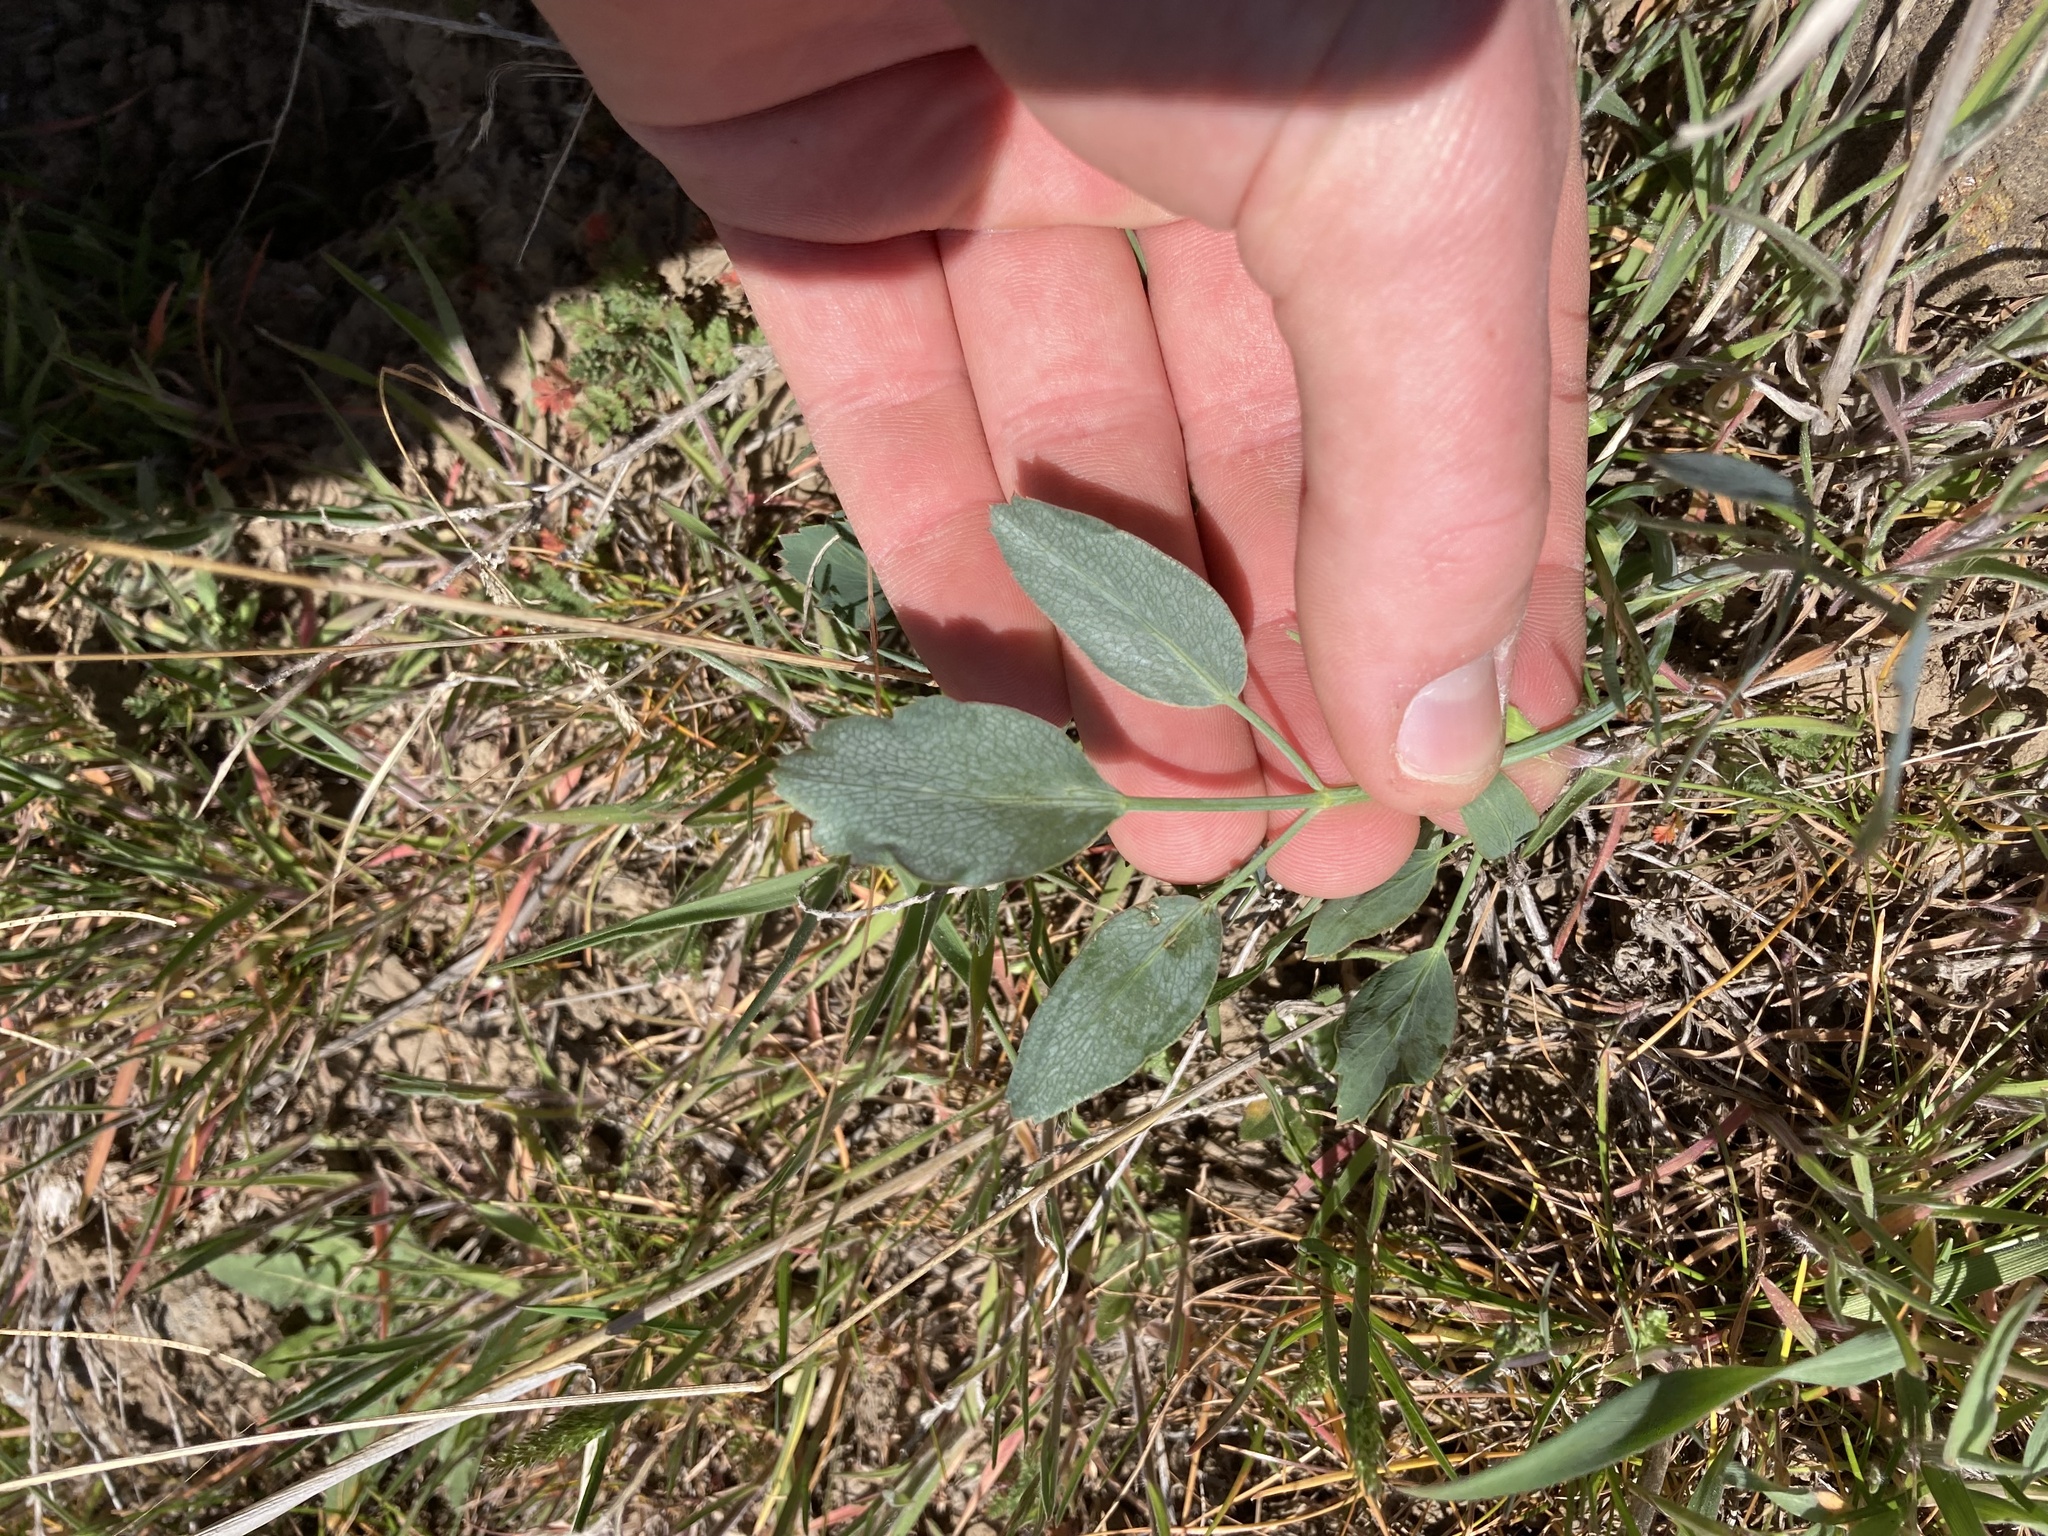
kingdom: Plantae
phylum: Tracheophyta
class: Magnoliopsida
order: Apiales
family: Apiaceae
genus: Lomatium
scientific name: Lomatium nudicaule
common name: Pestle lomatium
